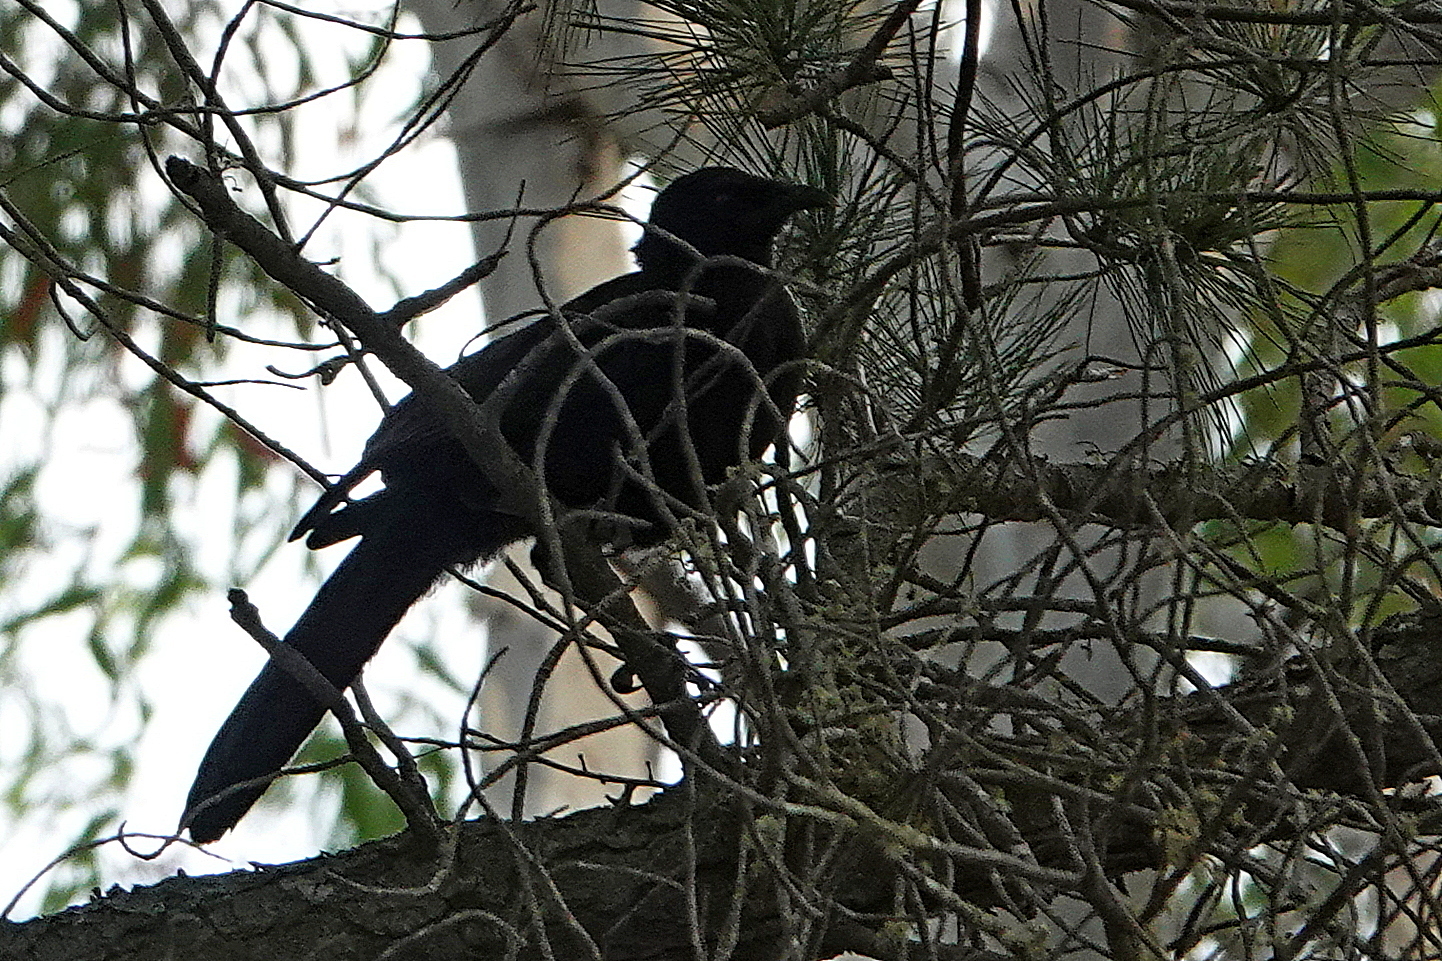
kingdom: Animalia
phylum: Chordata
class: Aves
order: Passeriformes
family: Corcoracidae
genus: Corcorax
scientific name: Corcorax melanoramphos
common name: White-winged chough
